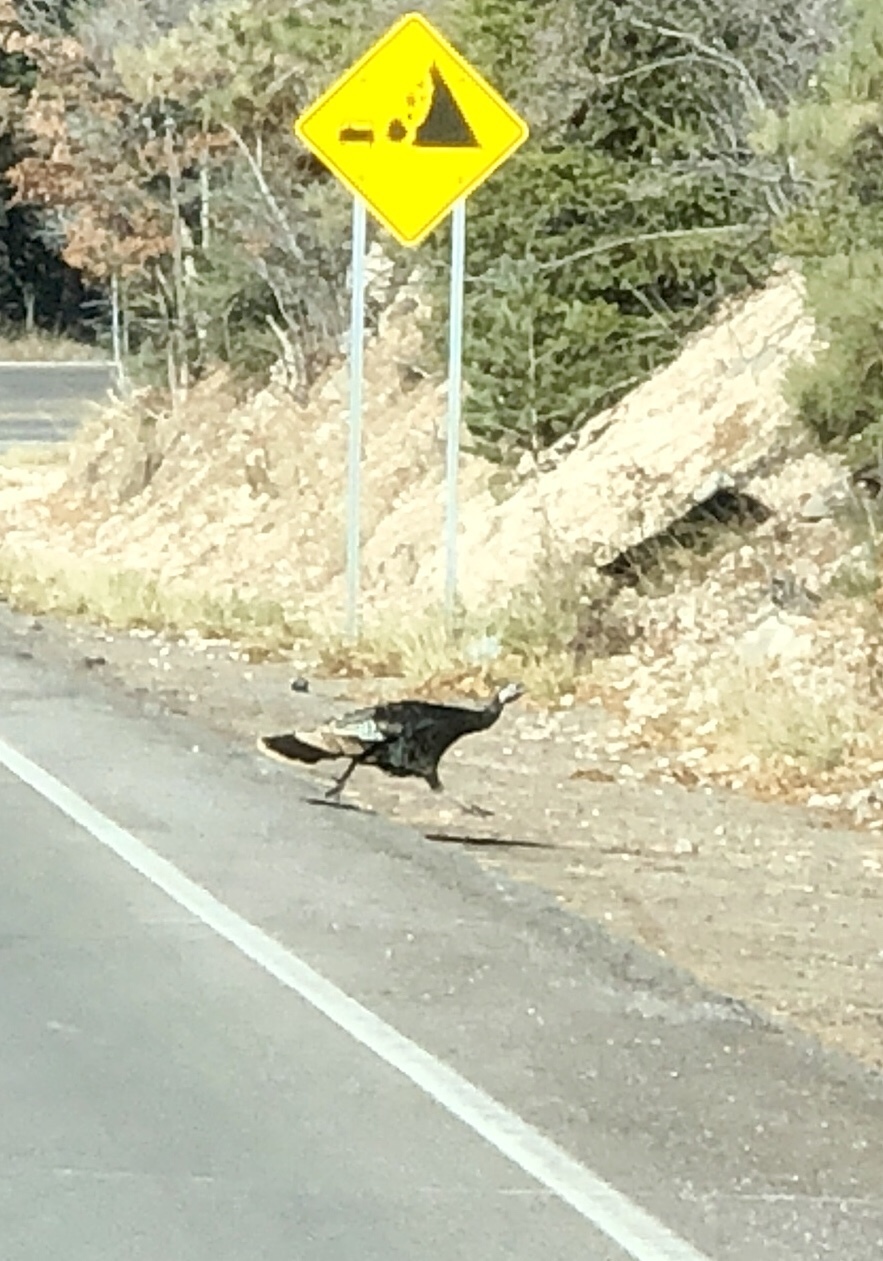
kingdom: Animalia
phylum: Chordata
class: Aves
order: Galliformes
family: Phasianidae
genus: Meleagris
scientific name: Meleagris gallopavo
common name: Wild turkey
